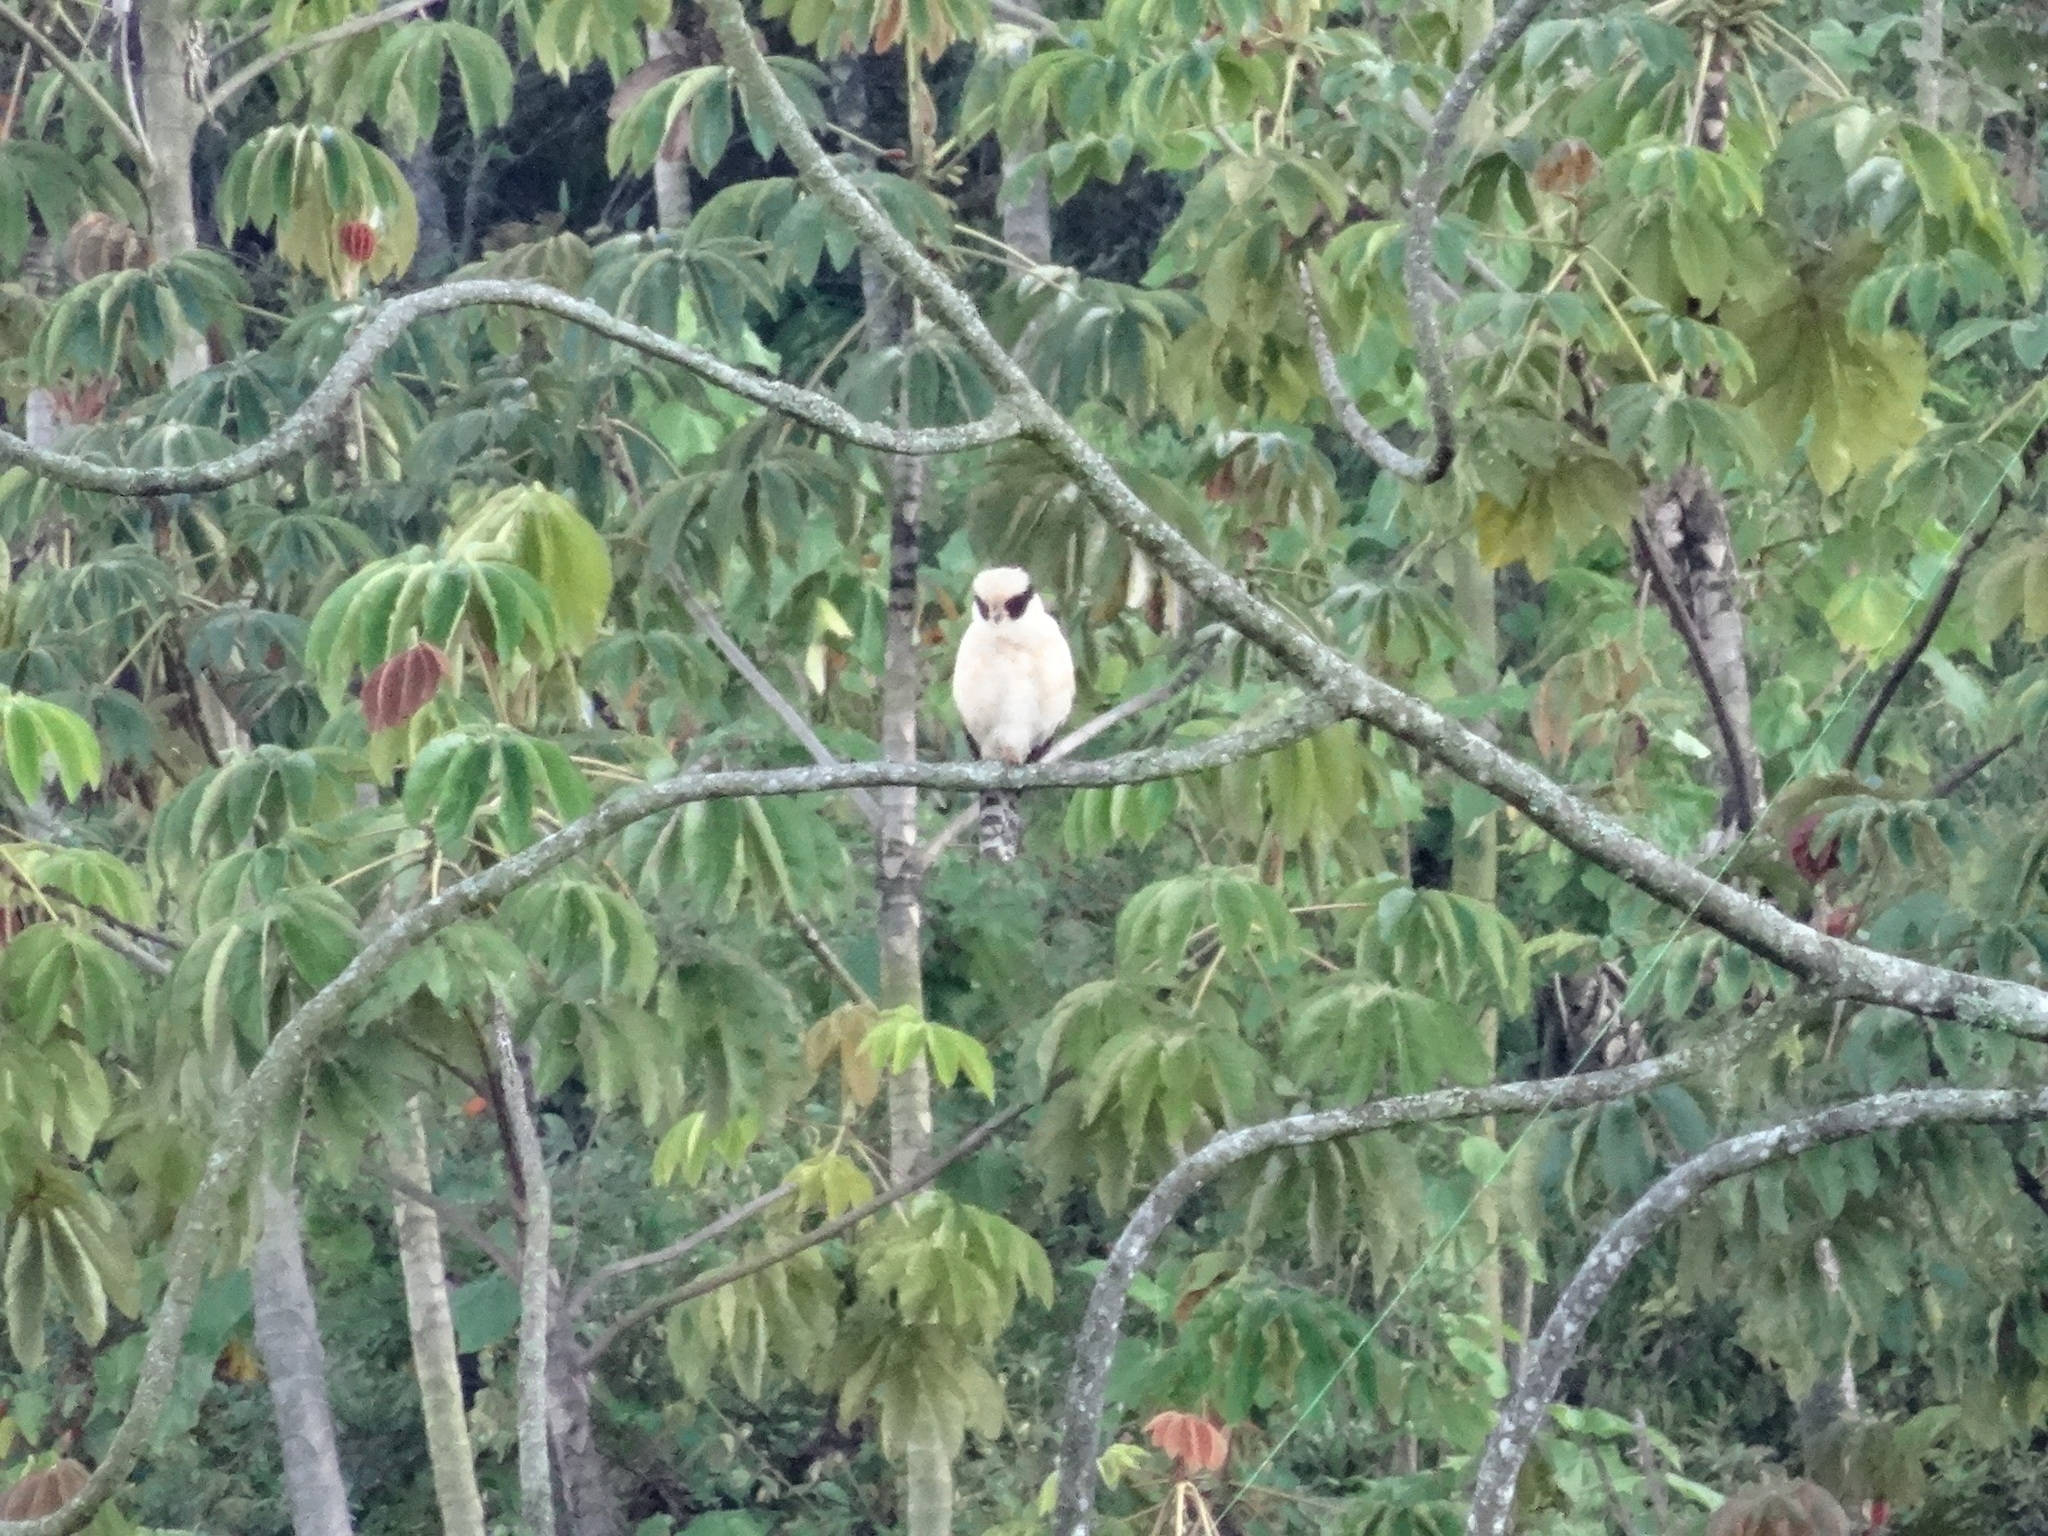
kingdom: Animalia
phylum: Chordata
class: Aves
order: Falconiformes
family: Falconidae
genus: Herpetotheres
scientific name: Herpetotheres cachinnans
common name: Laughing falcon
